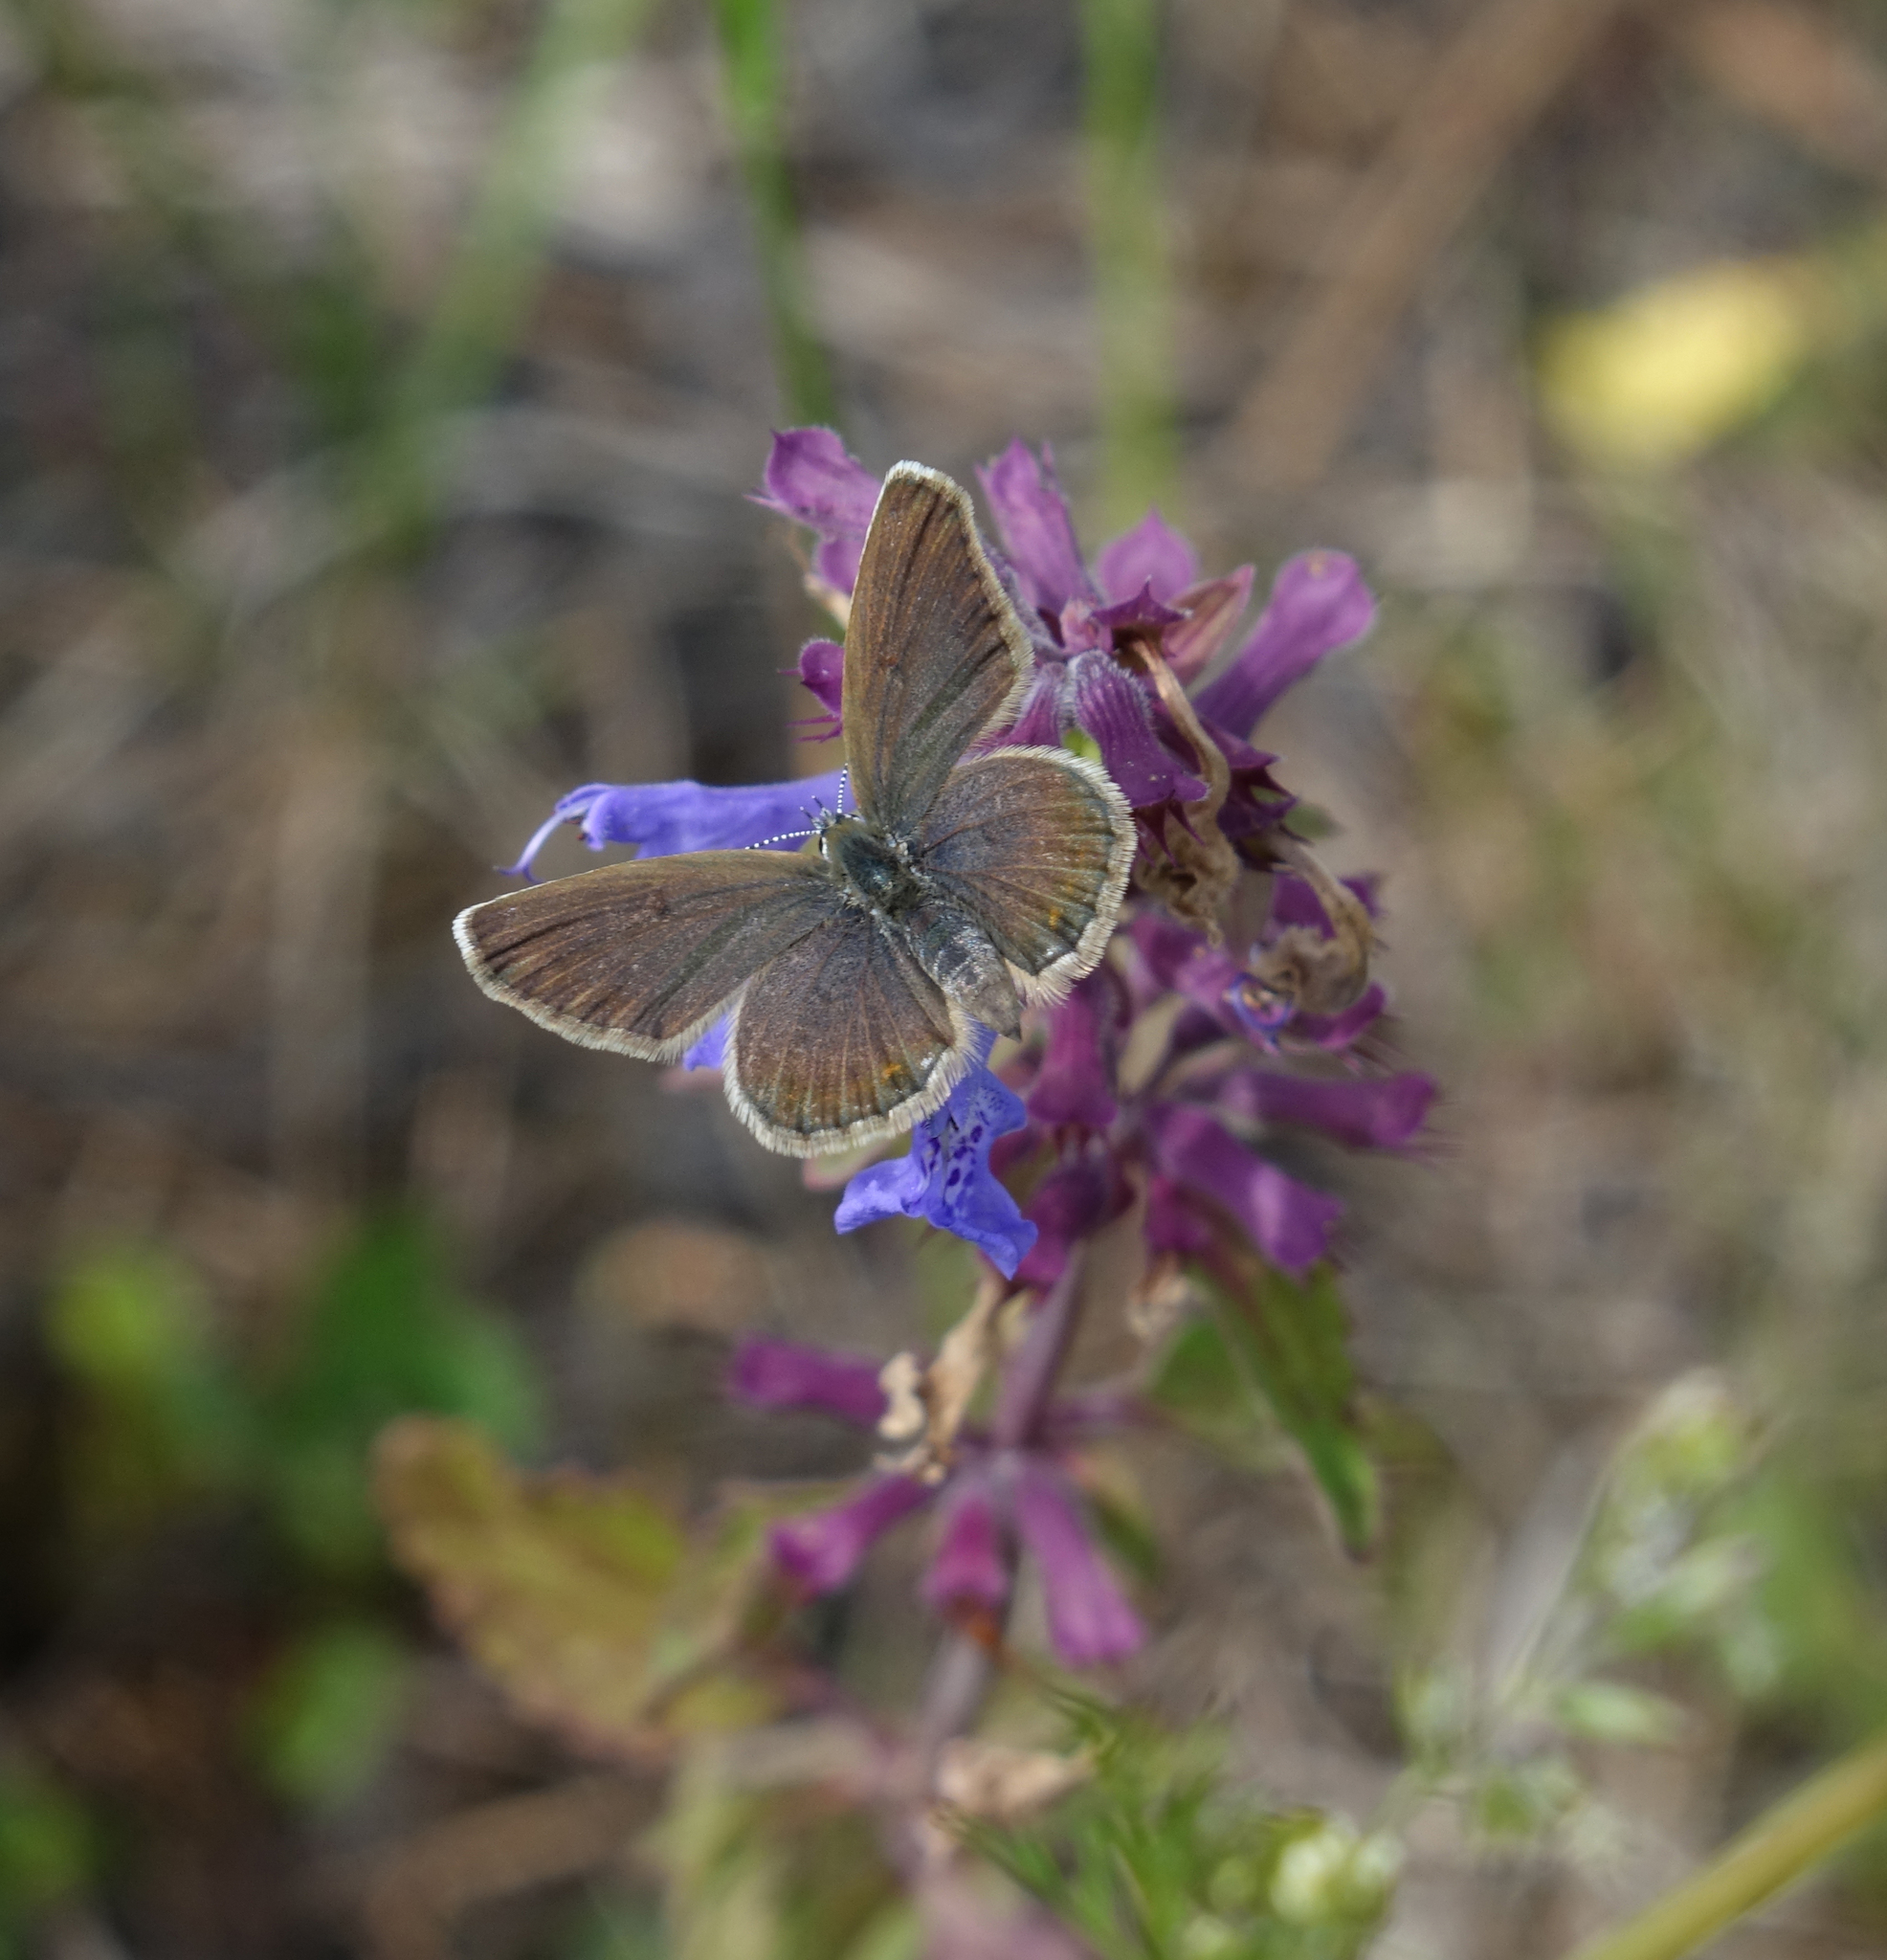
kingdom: Plantae
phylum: Tracheophyta
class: Magnoliopsida
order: Lamiales
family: Lamiaceae
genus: Dracocephalum
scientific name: Dracocephalum nutans
